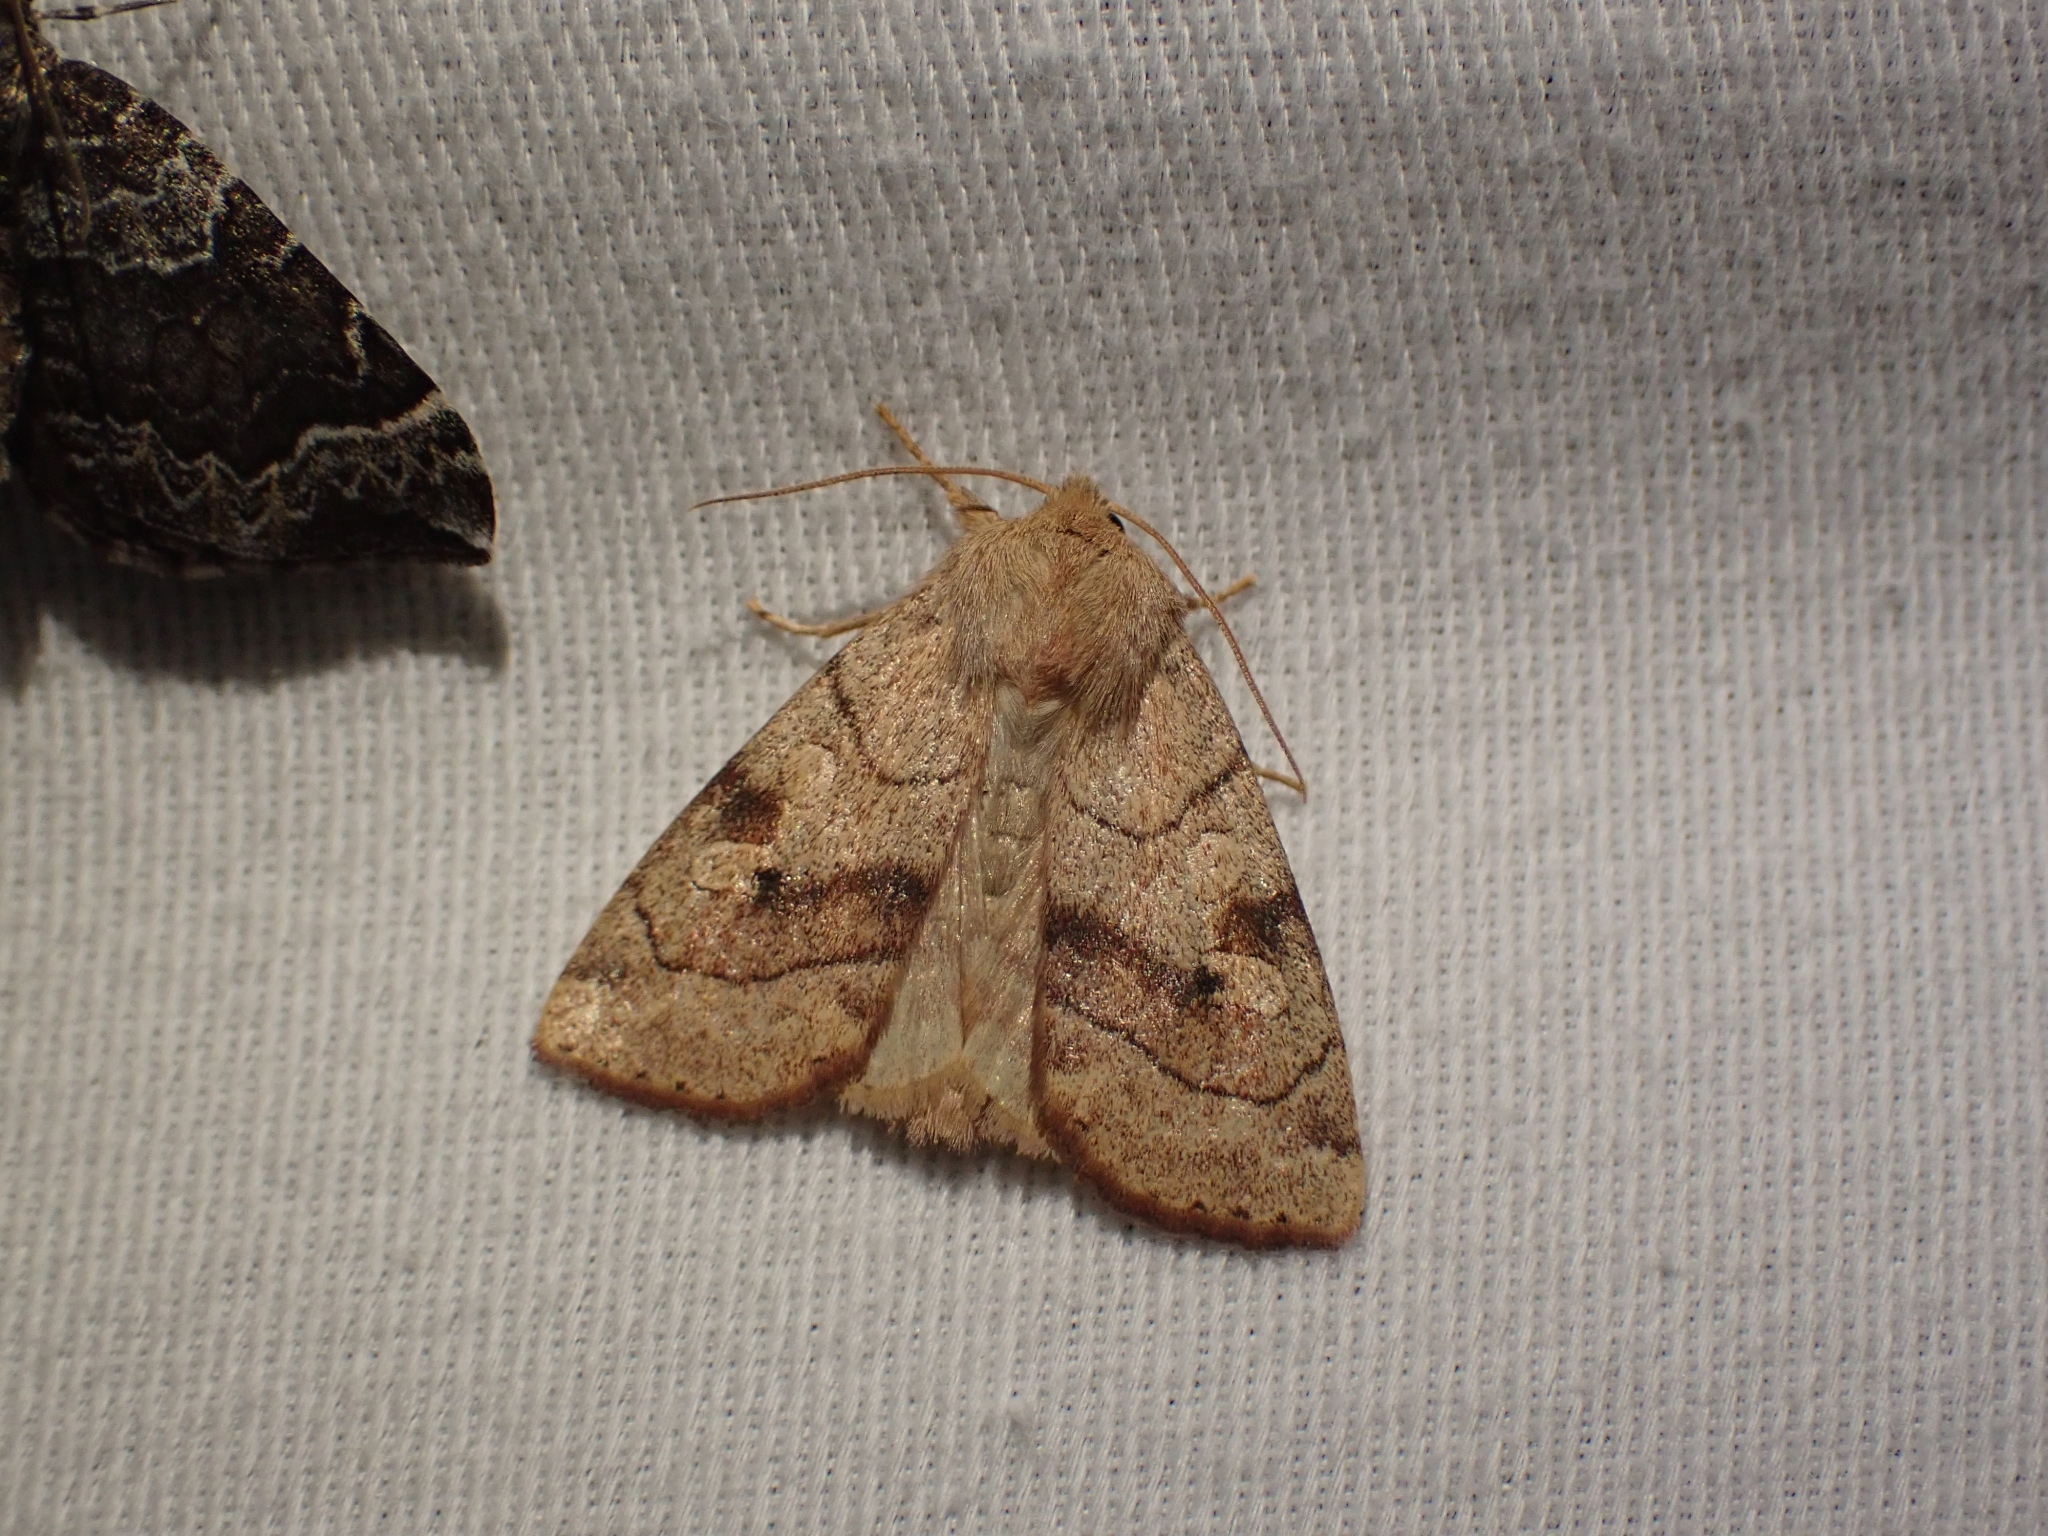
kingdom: Animalia
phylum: Arthropoda
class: Insecta
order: Lepidoptera
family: Noctuidae
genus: Enargia
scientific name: Enargia infumata
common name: Smoked sallow
